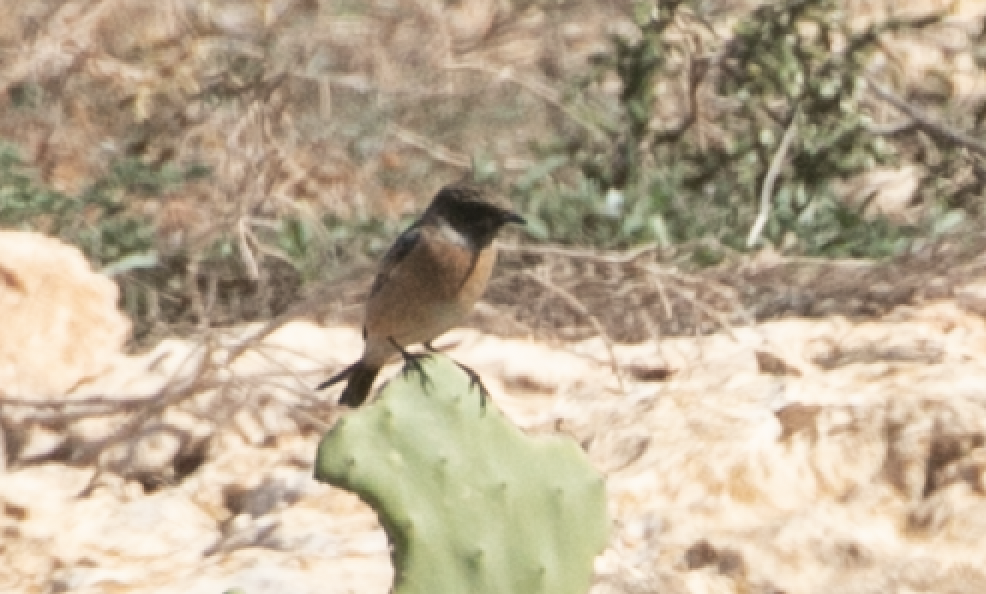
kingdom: Animalia
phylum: Chordata
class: Aves
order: Passeriformes
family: Muscicapidae
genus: Saxicola
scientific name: Saxicola rubicola
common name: European stonechat
